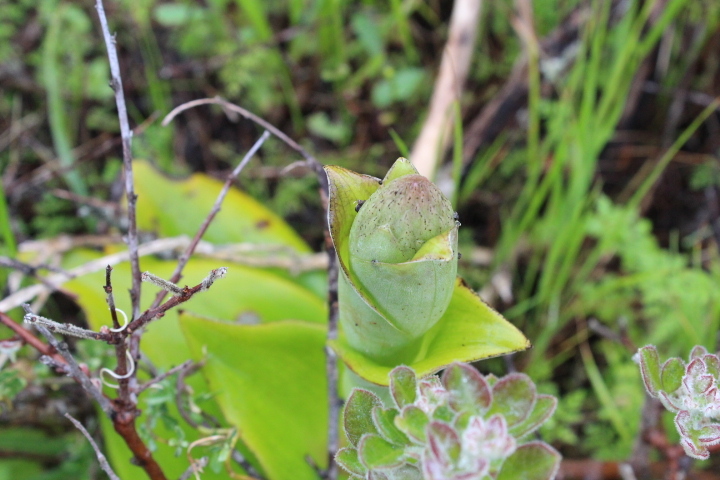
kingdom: Plantae
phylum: Tracheophyta
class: Liliopsida
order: Asparagales
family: Orchidaceae
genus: Satyrium
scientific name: Satyrium carneum
